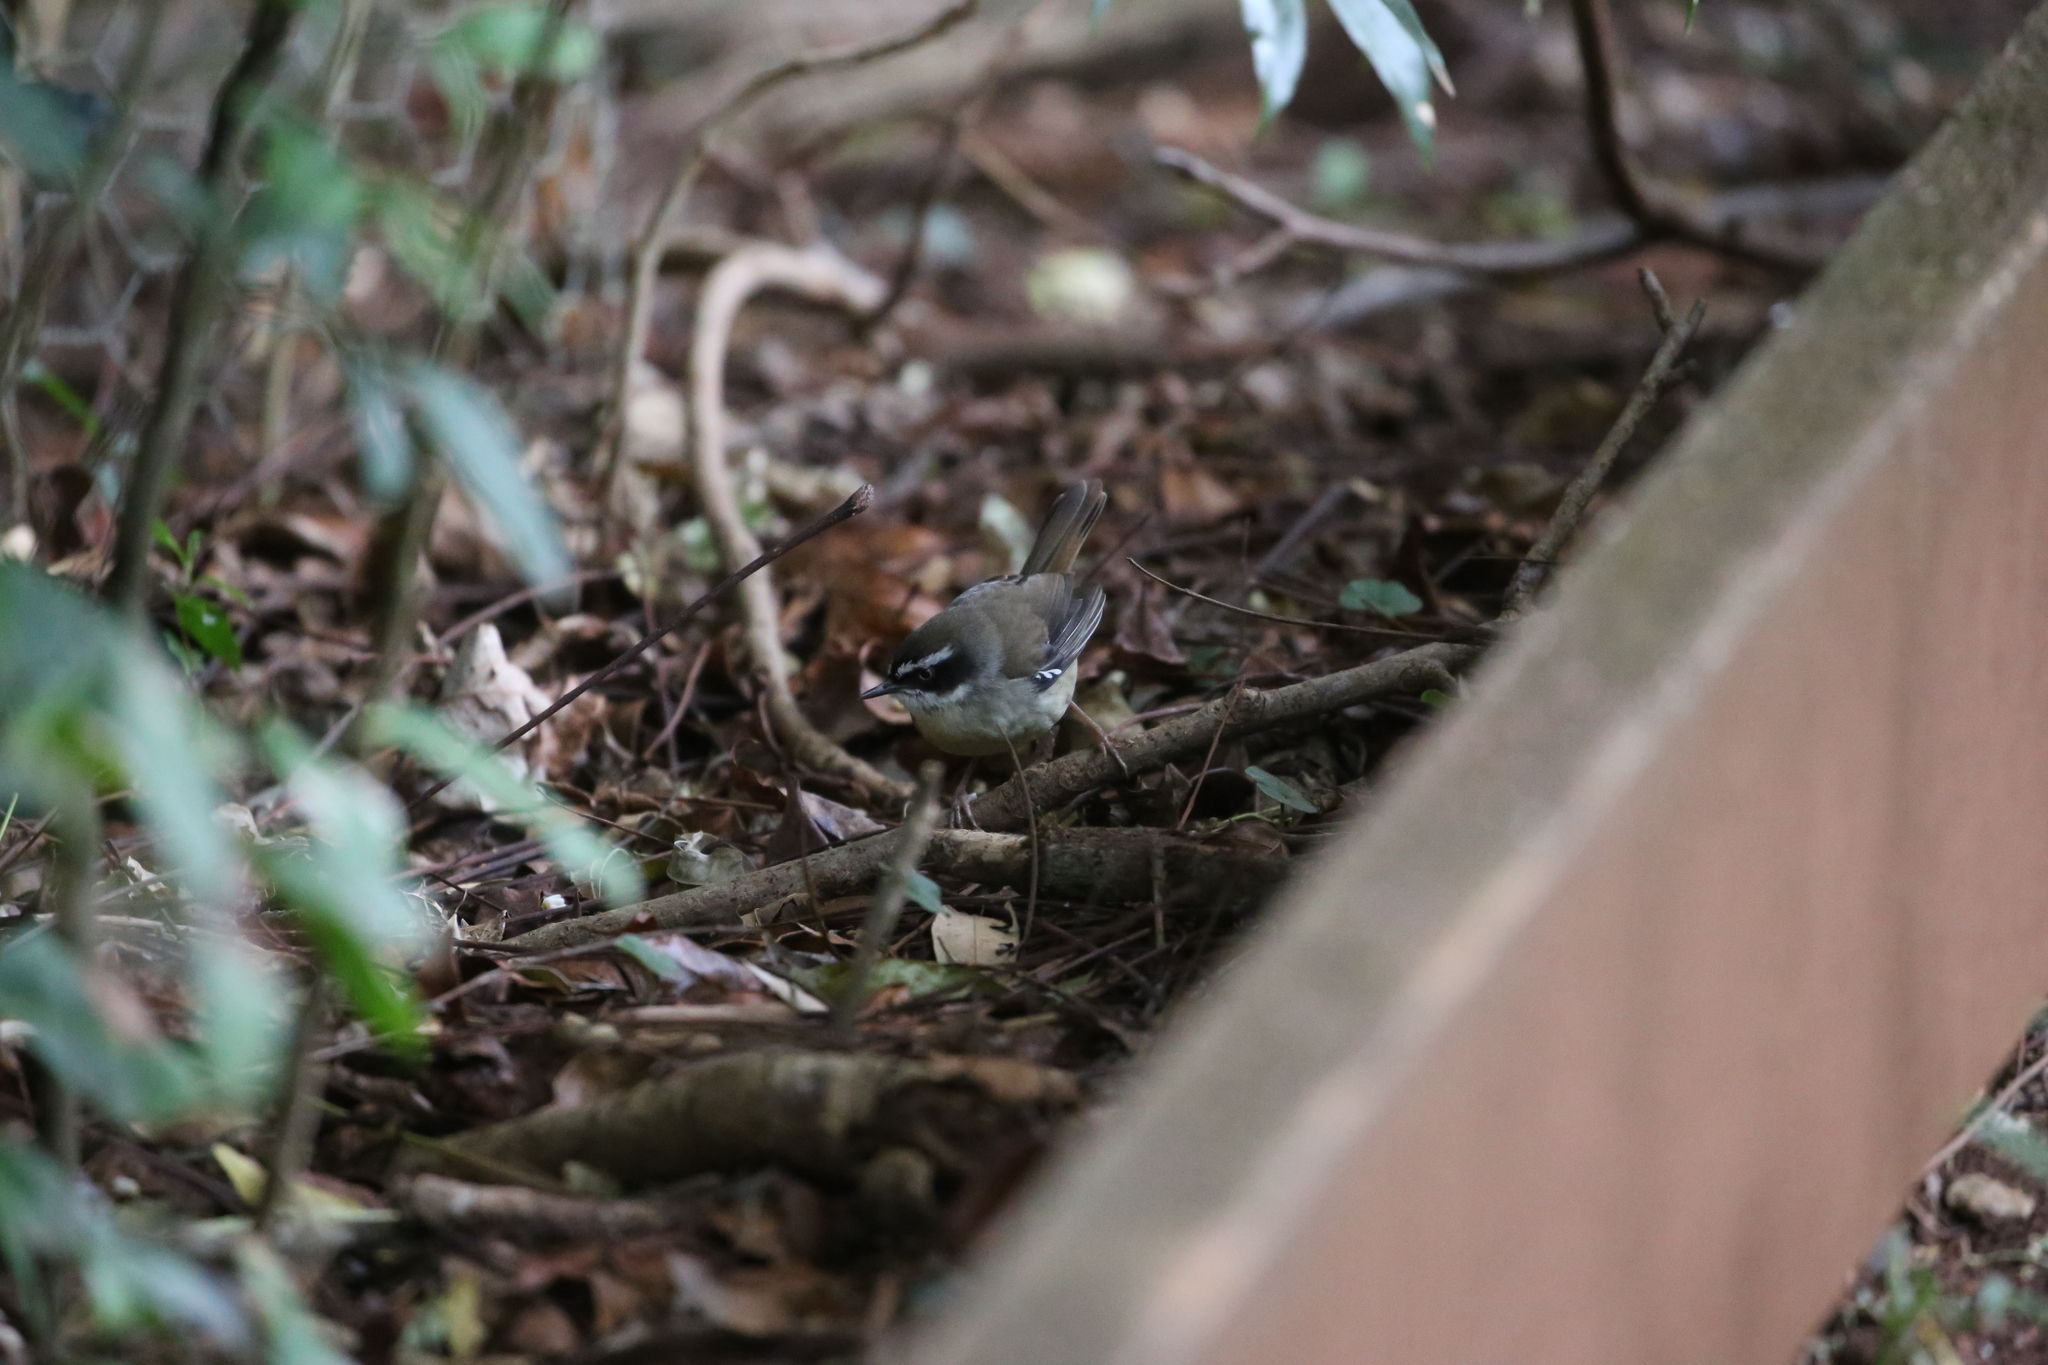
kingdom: Animalia
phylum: Chordata
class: Aves
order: Passeriformes
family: Acanthizidae
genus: Sericornis
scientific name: Sericornis frontalis
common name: White-browed scrubwren
